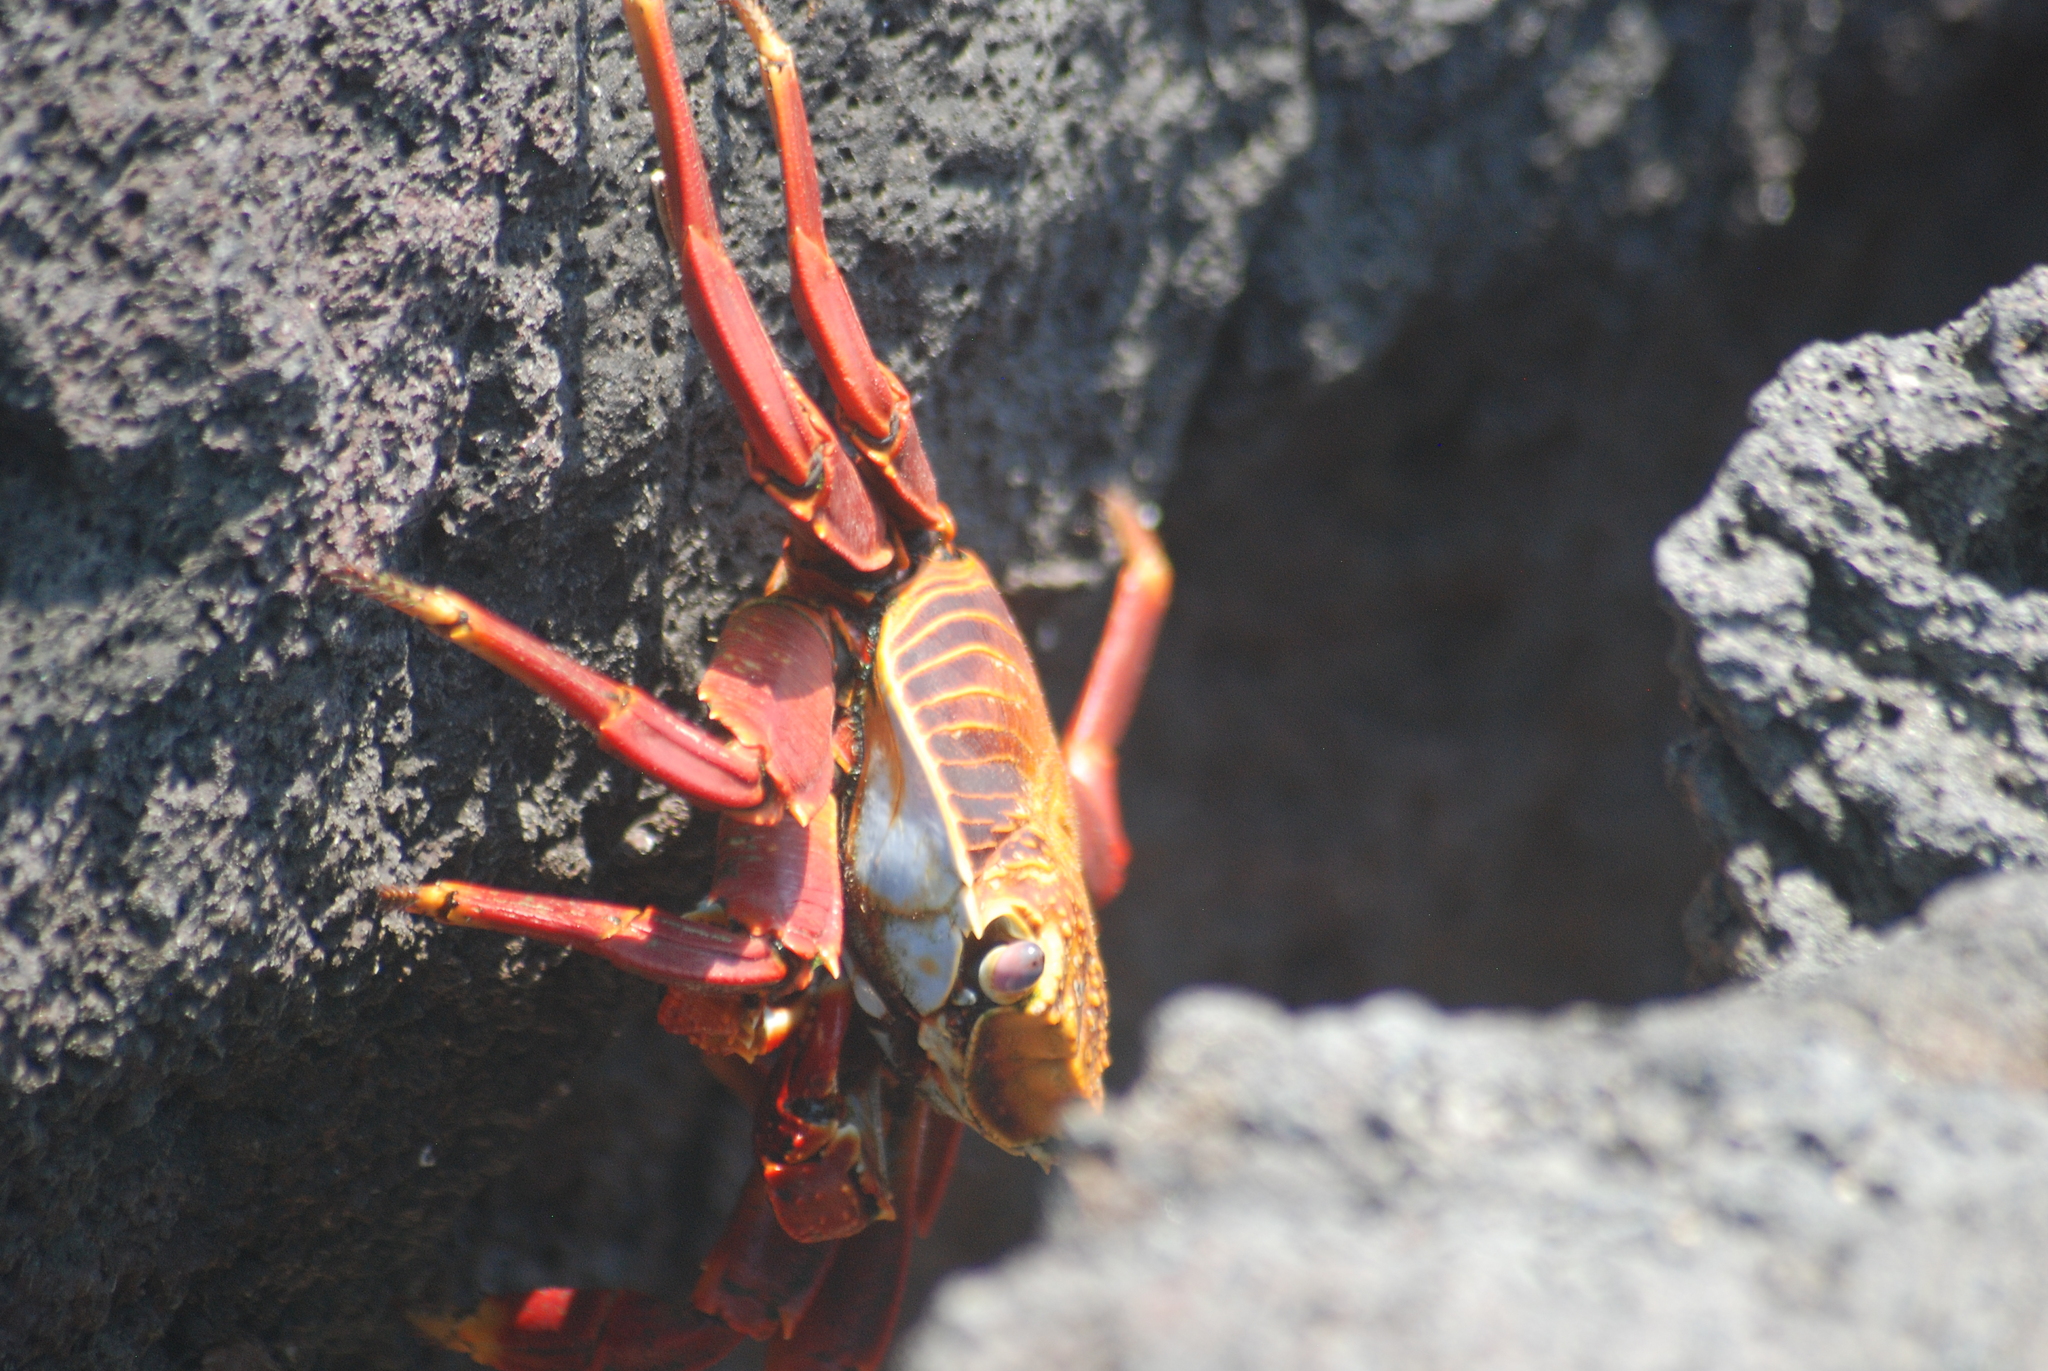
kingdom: Animalia
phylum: Arthropoda
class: Malacostraca
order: Decapoda
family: Grapsidae
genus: Grapsus
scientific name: Grapsus grapsus
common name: Sally lightfoot
